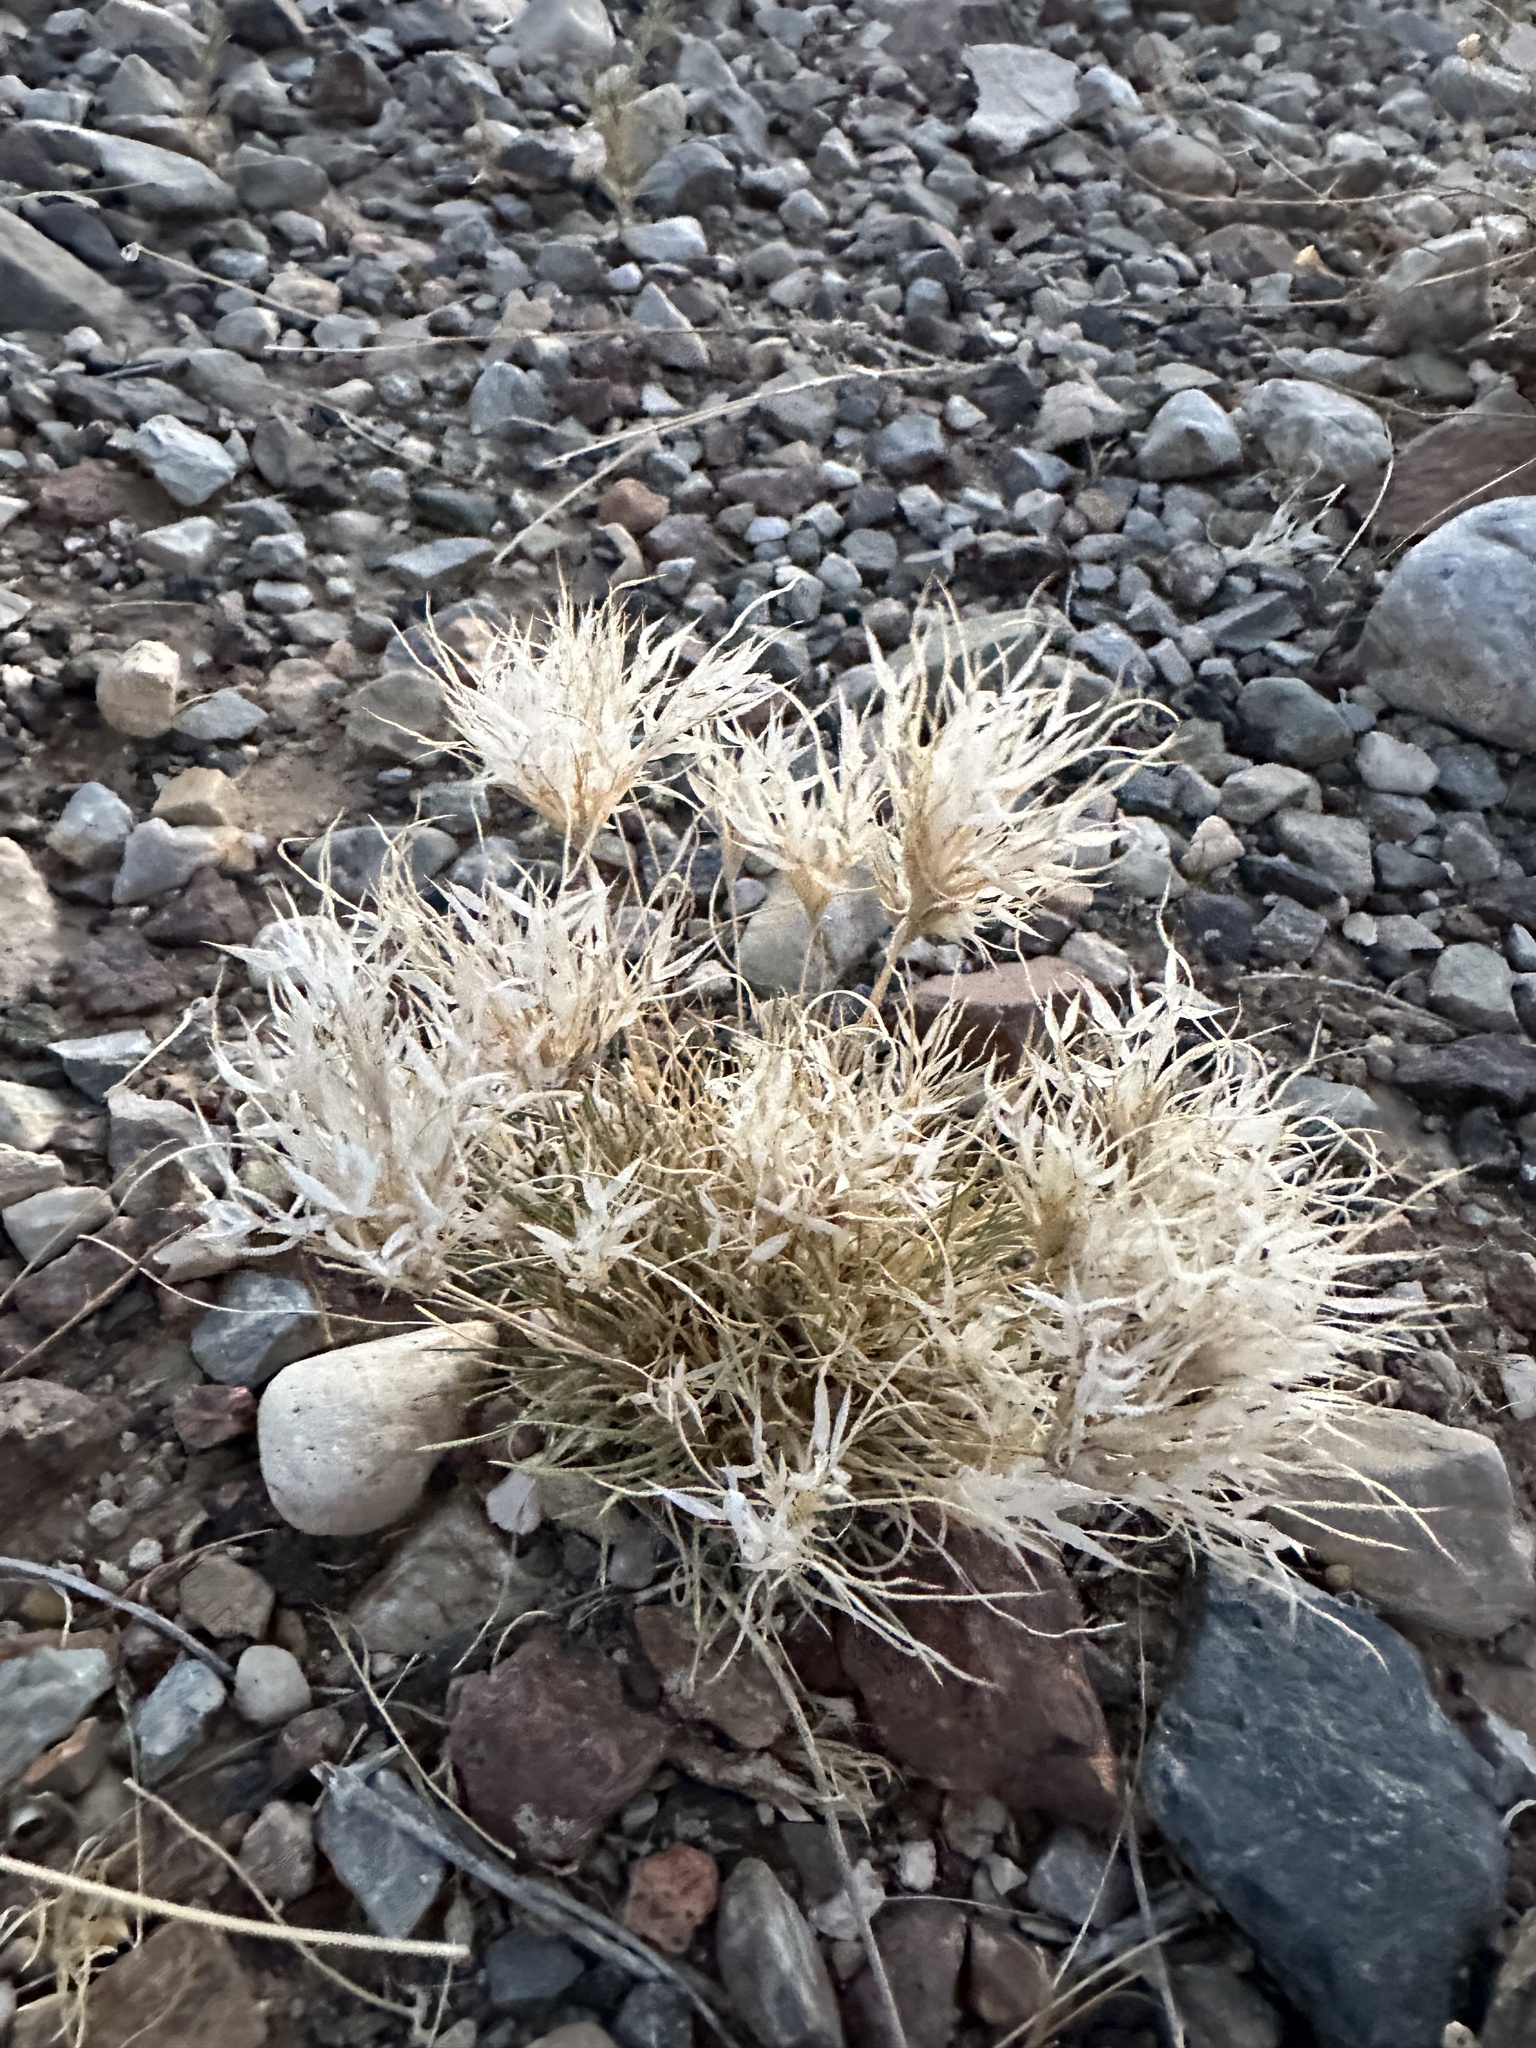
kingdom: Plantae
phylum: Tracheophyta
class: Liliopsida
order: Poales
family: Poaceae
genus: Dasyochloa
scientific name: Dasyochloa pulchella
